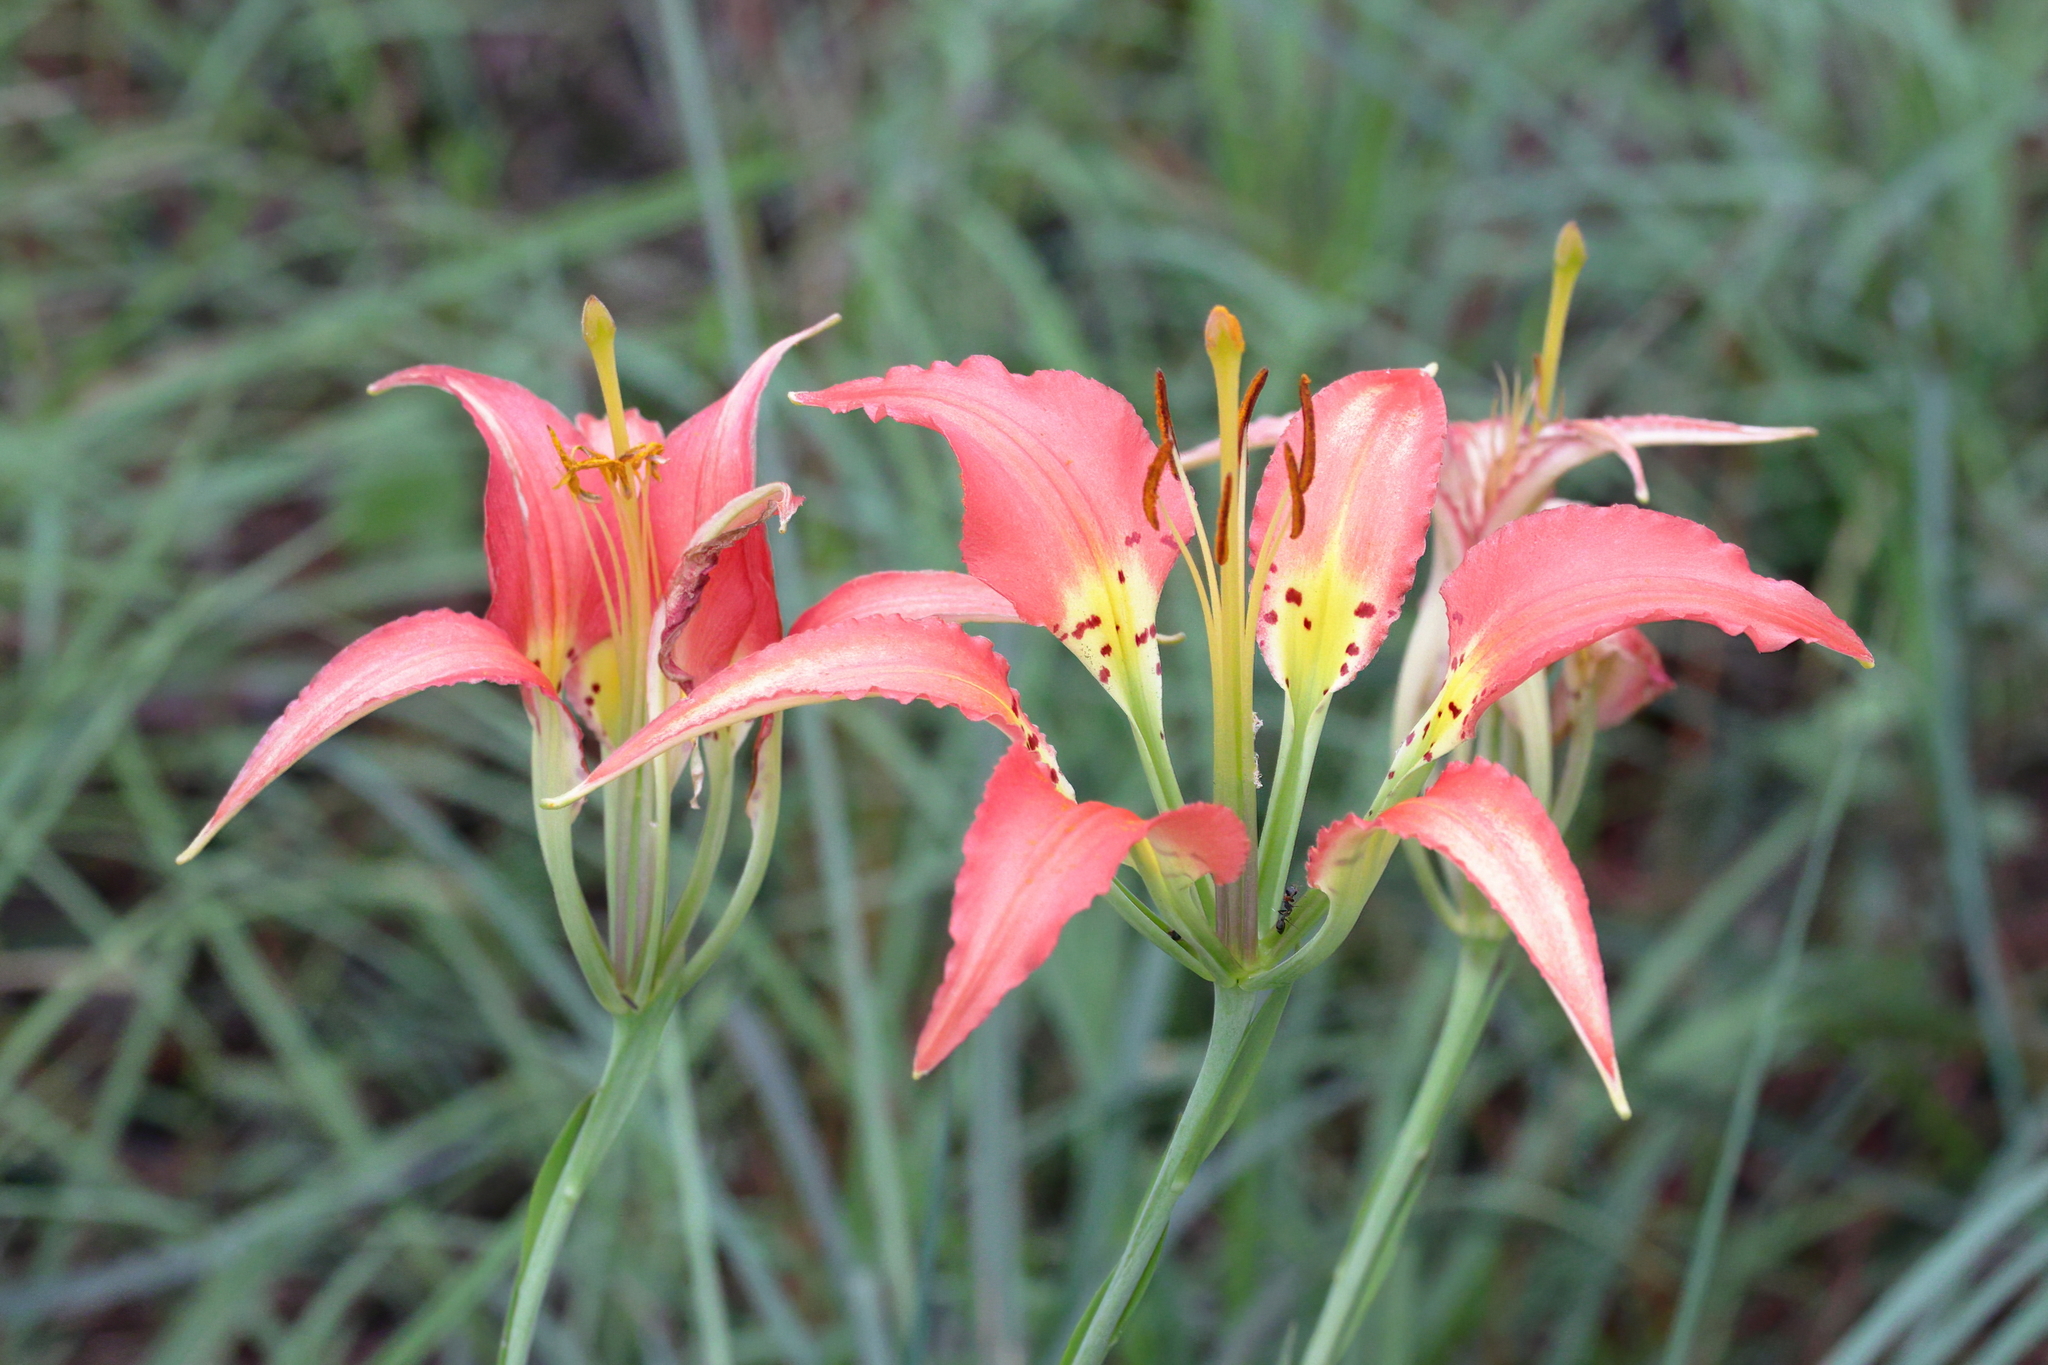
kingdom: Plantae
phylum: Tracheophyta
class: Liliopsida
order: Liliales
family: Liliaceae
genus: Lilium
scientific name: Lilium catesbaei
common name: Catesby's lily
